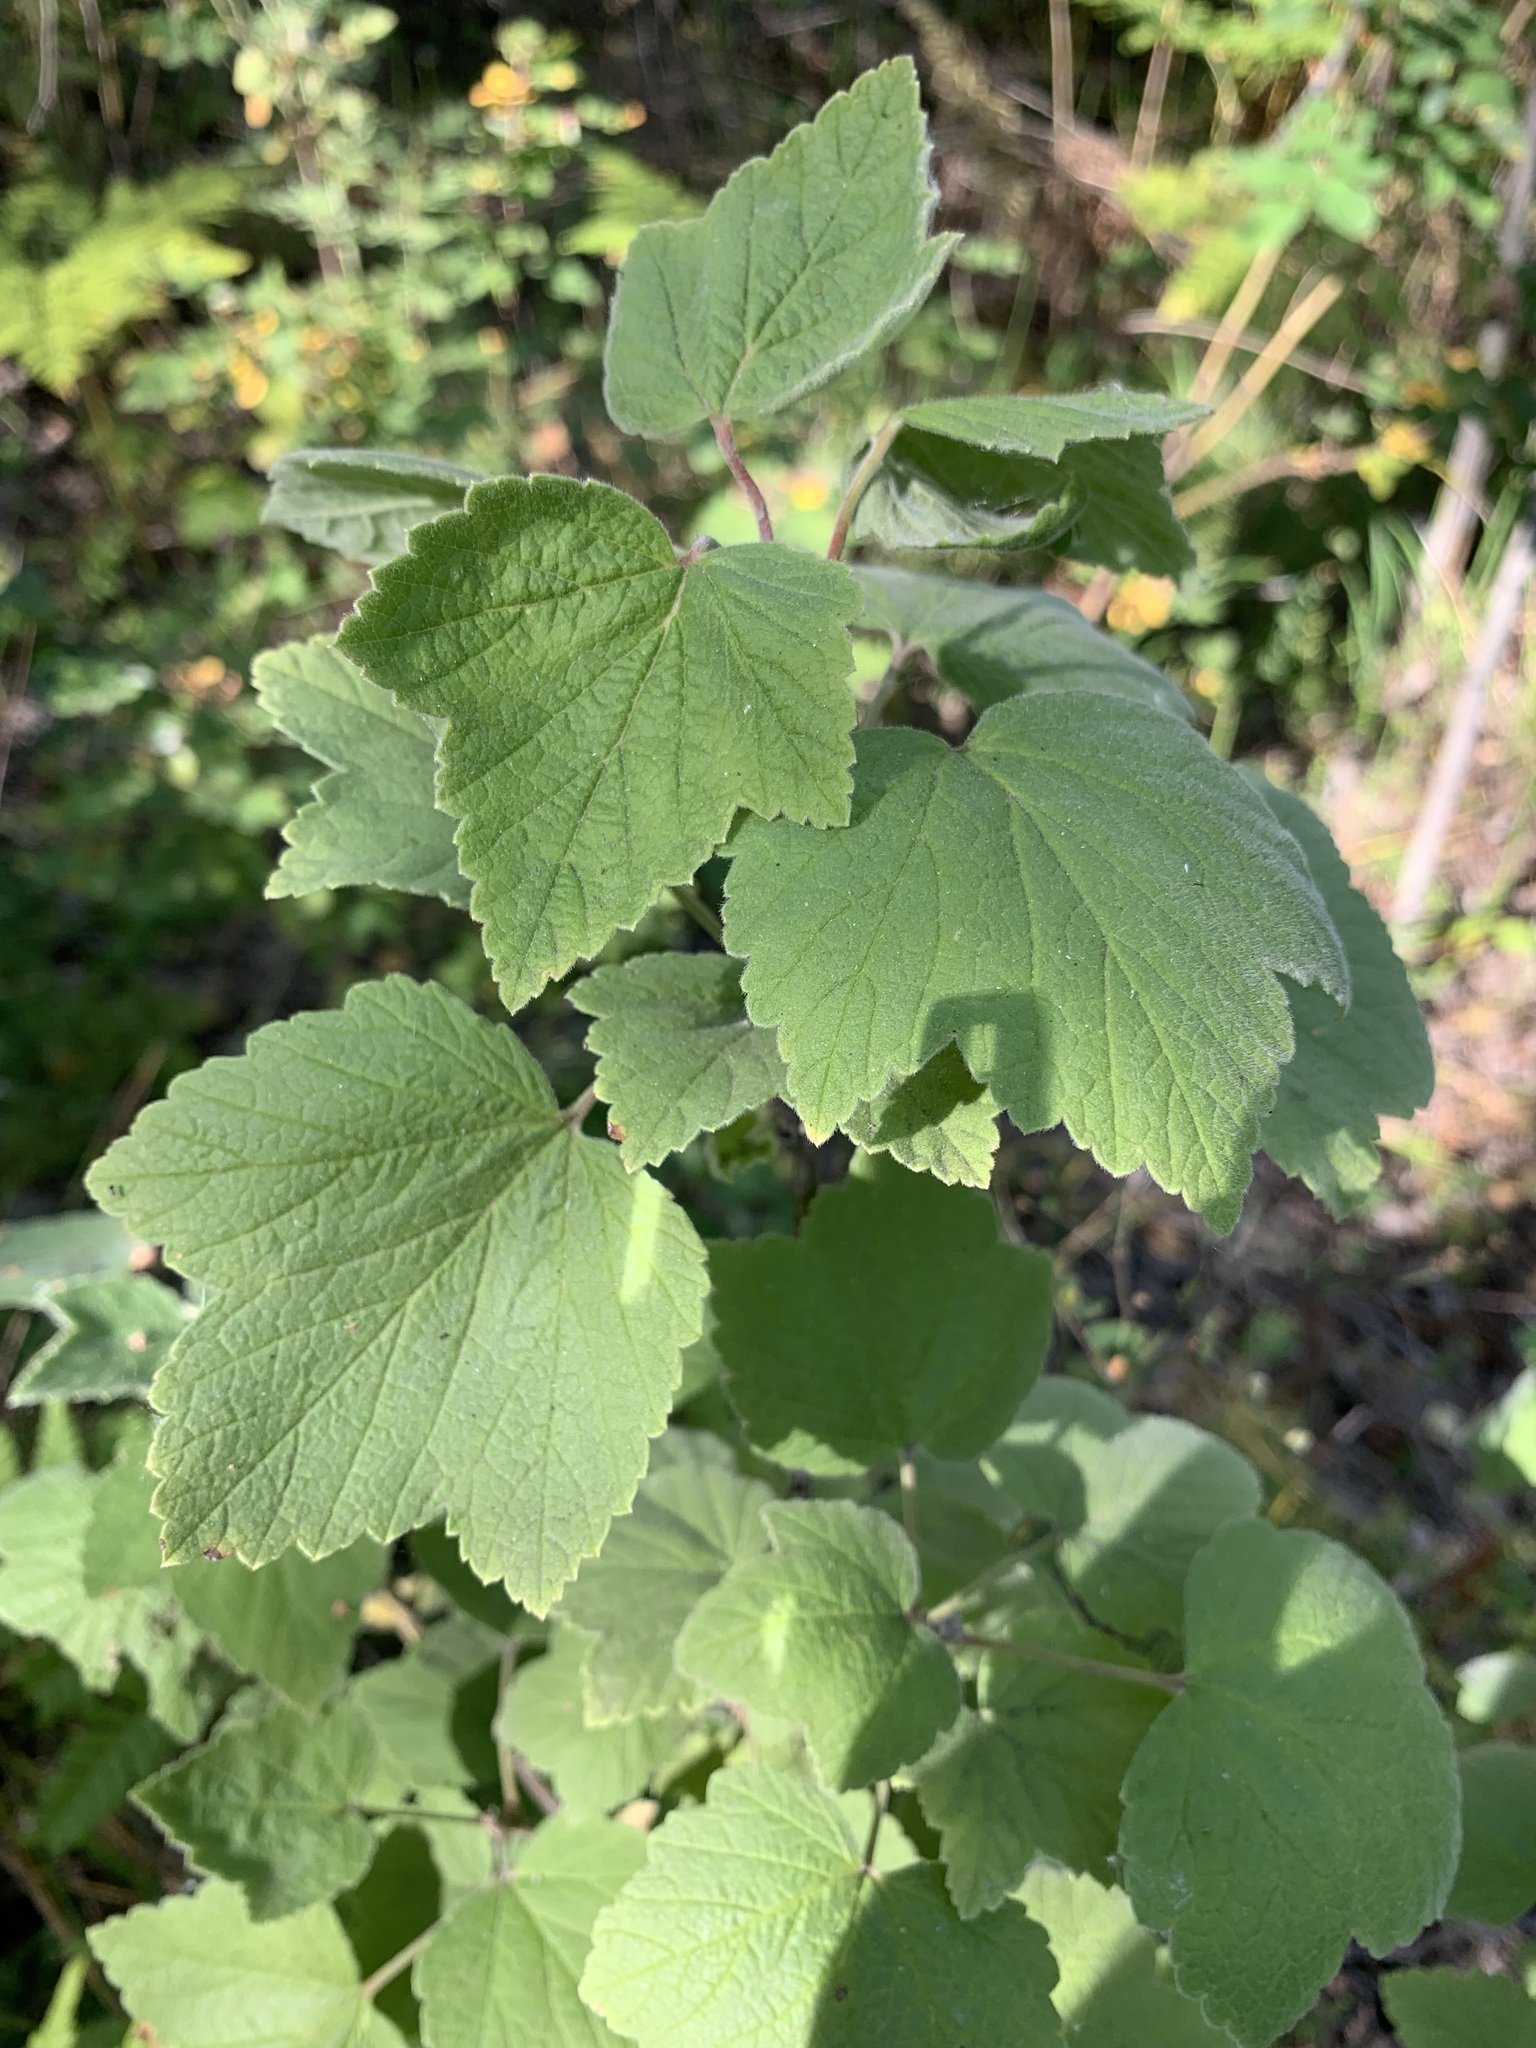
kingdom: Plantae
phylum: Tracheophyta
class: Magnoliopsida
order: Saxifragales
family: Grossulariaceae
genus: Ribes
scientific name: Ribes spicatum
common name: Downy currant
